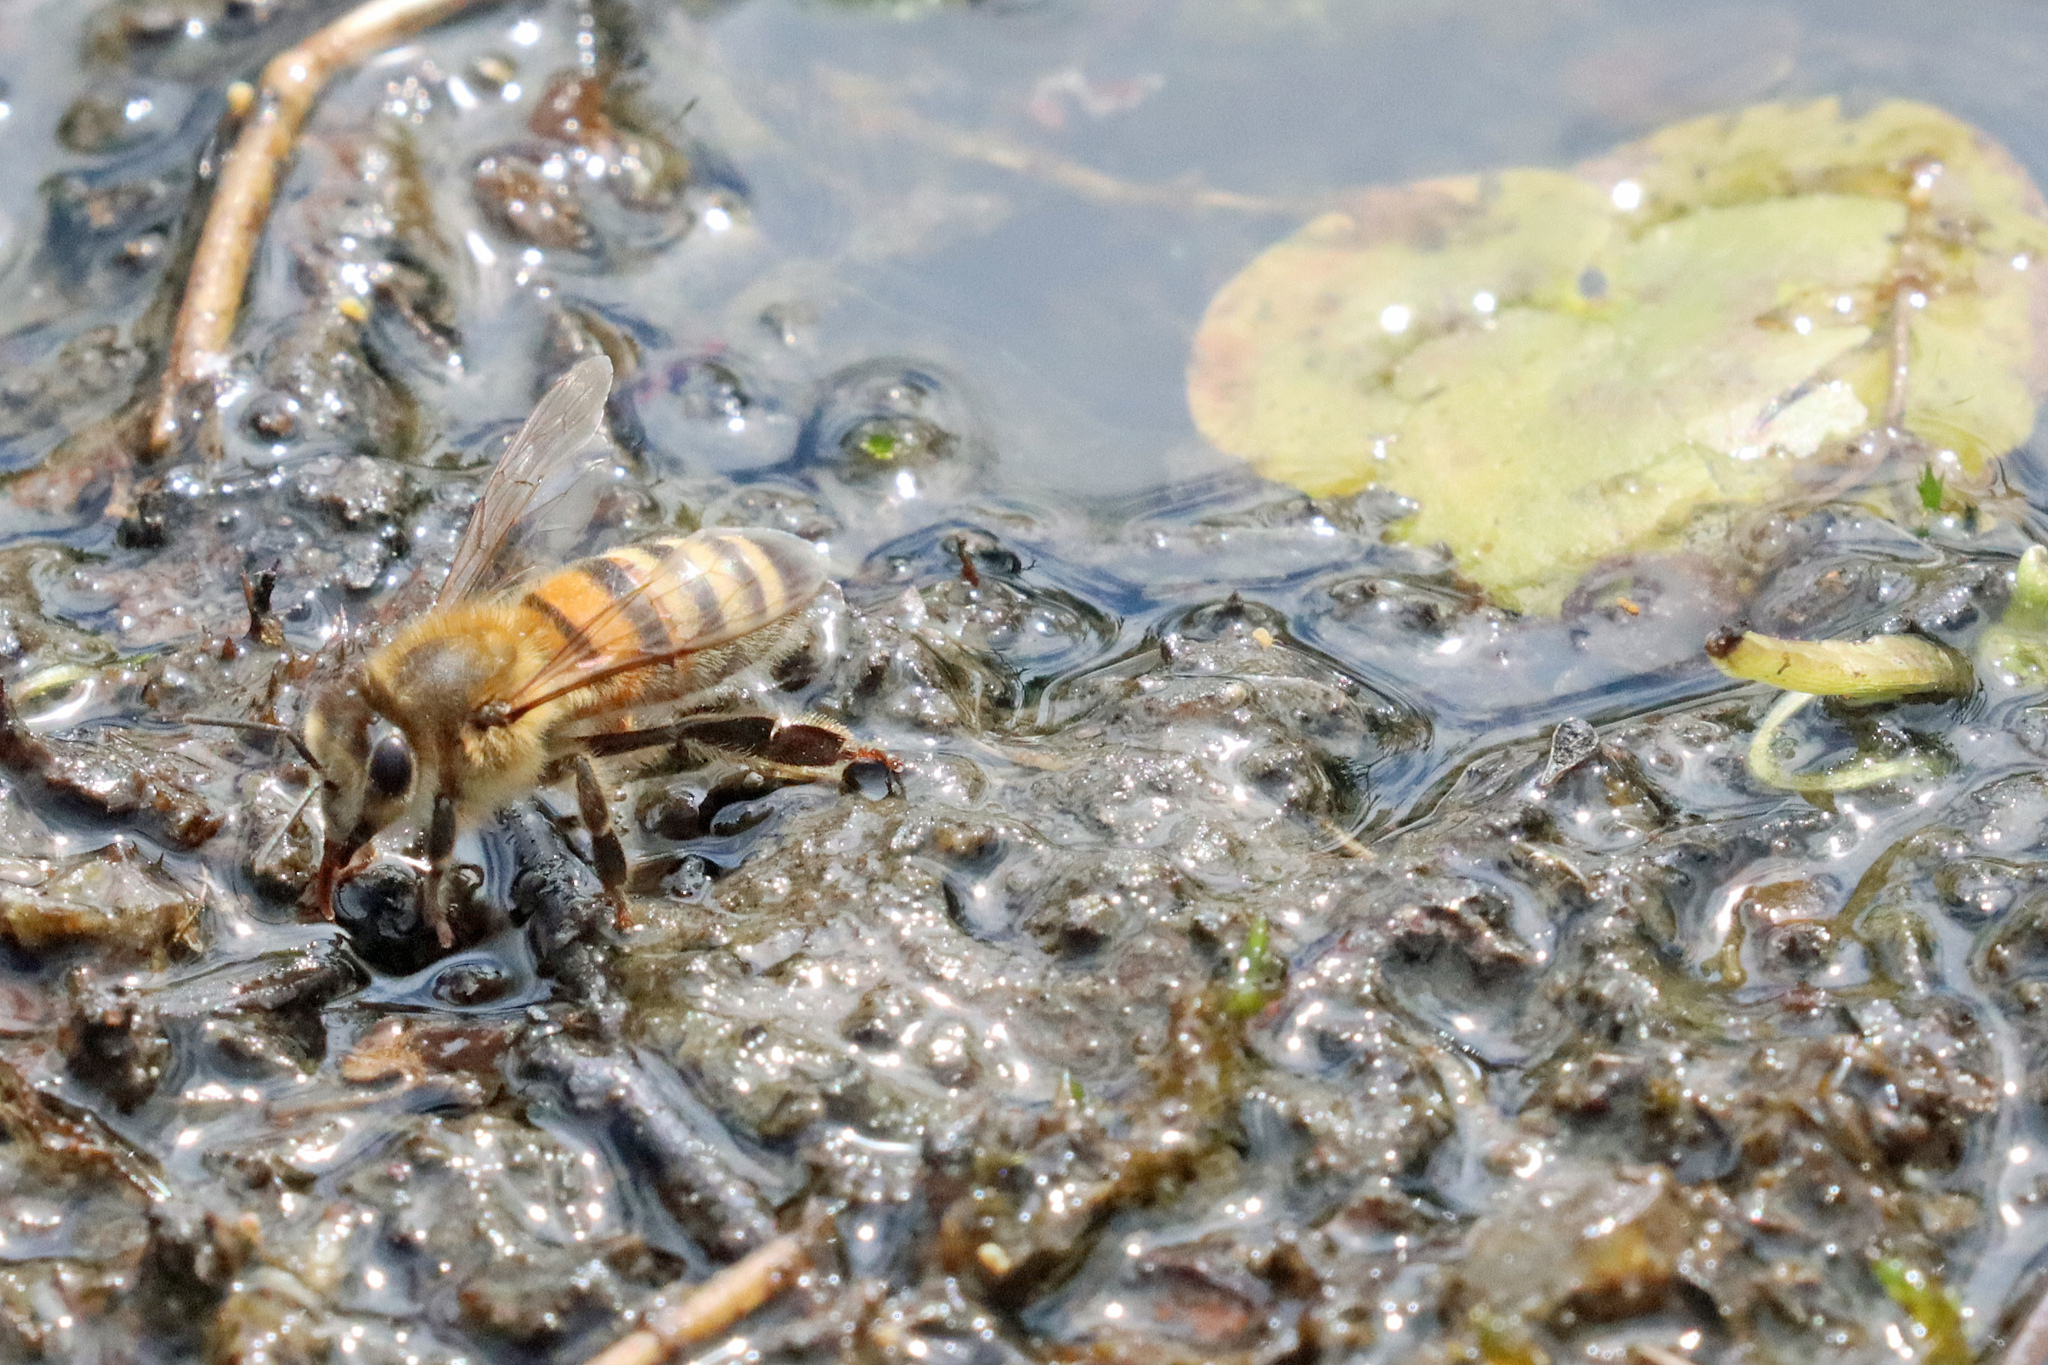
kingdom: Animalia
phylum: Arthropoda
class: Insecta
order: Hymenoptera
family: Apidae
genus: Apis
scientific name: Apis mellifera
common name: Honey bee
